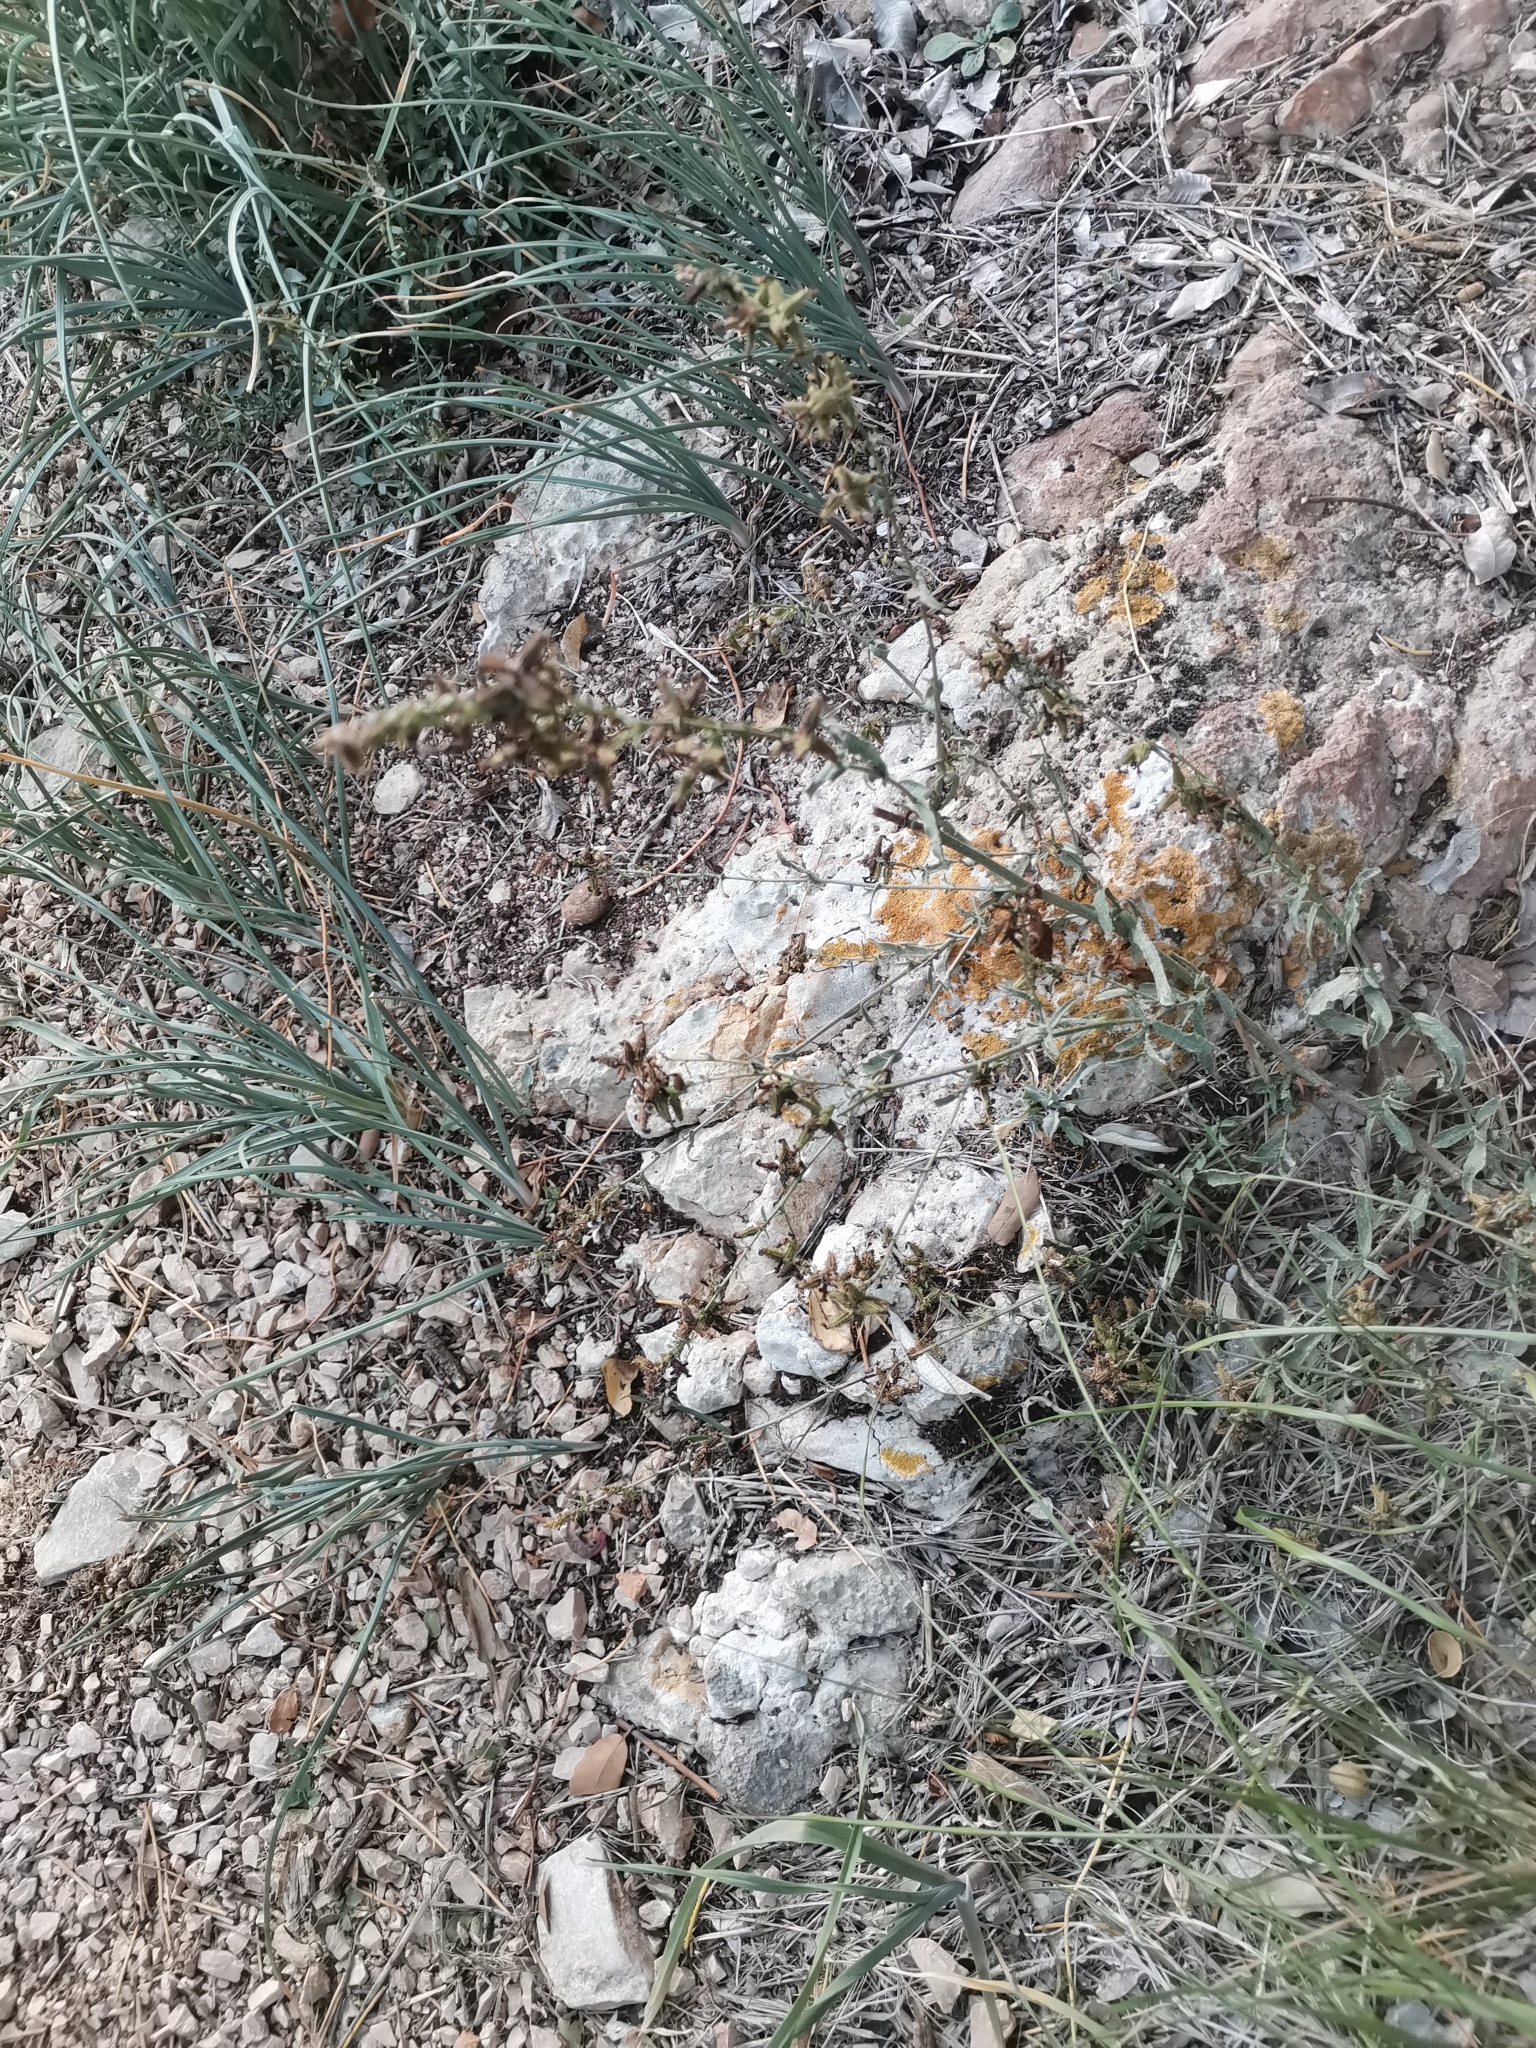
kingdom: Plantae
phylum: Tracheophyta
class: Magnoliopsida
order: Caryophyllales
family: Plumbaginaceae
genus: Plumbago
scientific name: Plumbago europaea
